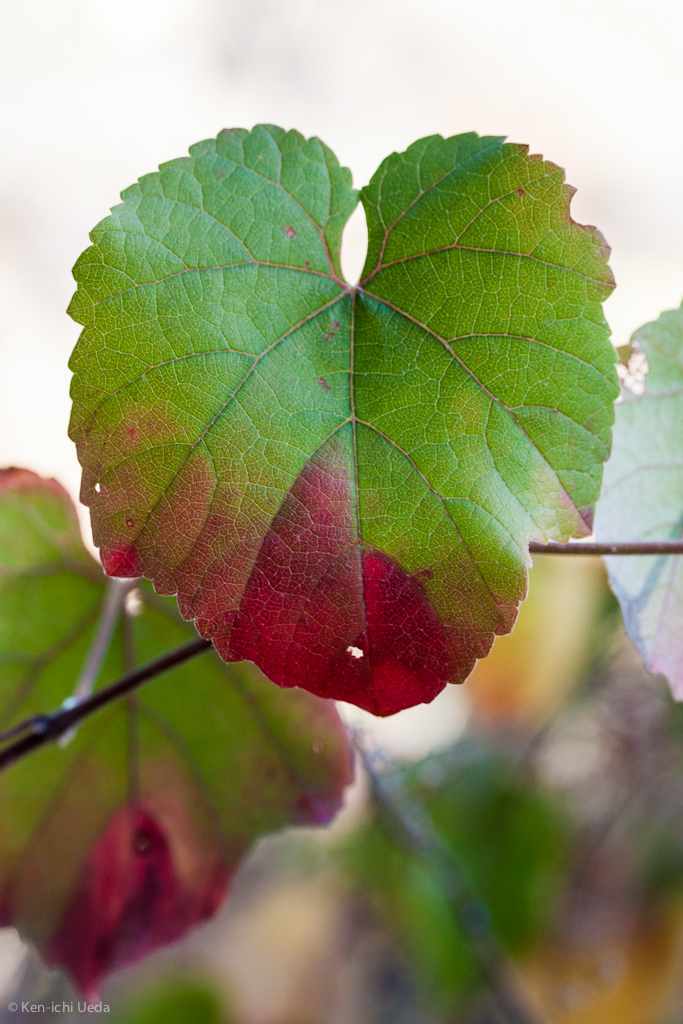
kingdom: Plantae
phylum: Tracheophyta
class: Magnoliopsida
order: Vitales
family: Vitaceae
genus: Vitis
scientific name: Vitis californica
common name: California wild grape
